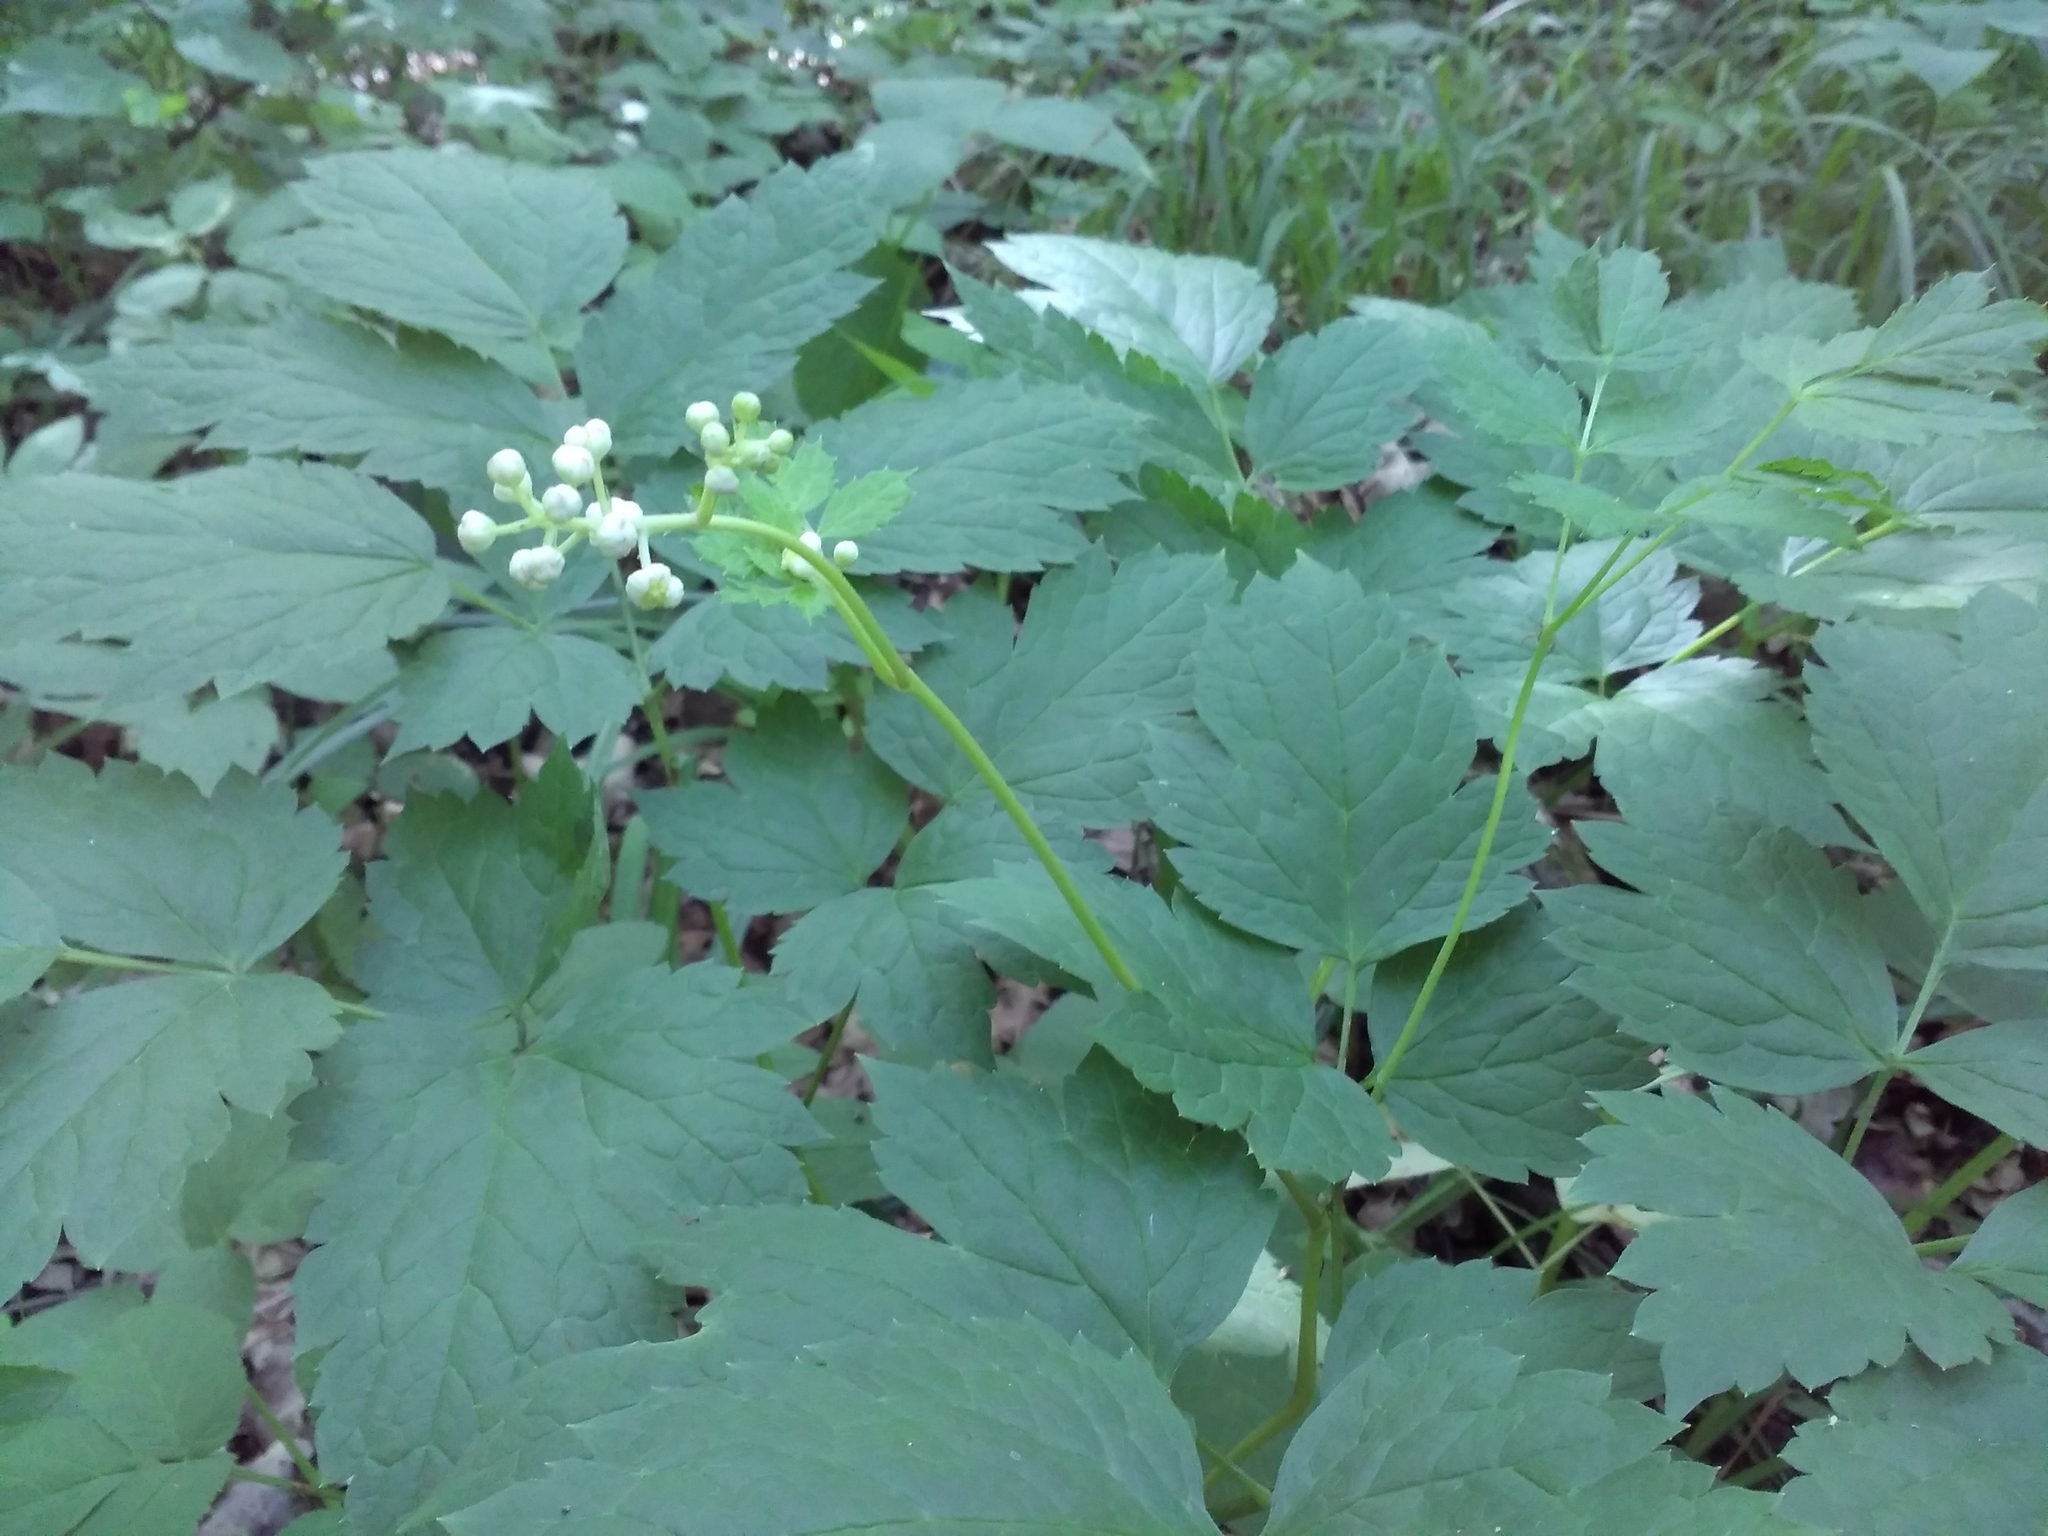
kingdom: Plantae
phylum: Tracheophyta
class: Magnoliopsida
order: Ranunculales
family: Ranunculaceae
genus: Actaea
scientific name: Actaea spicata
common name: Baneberry
